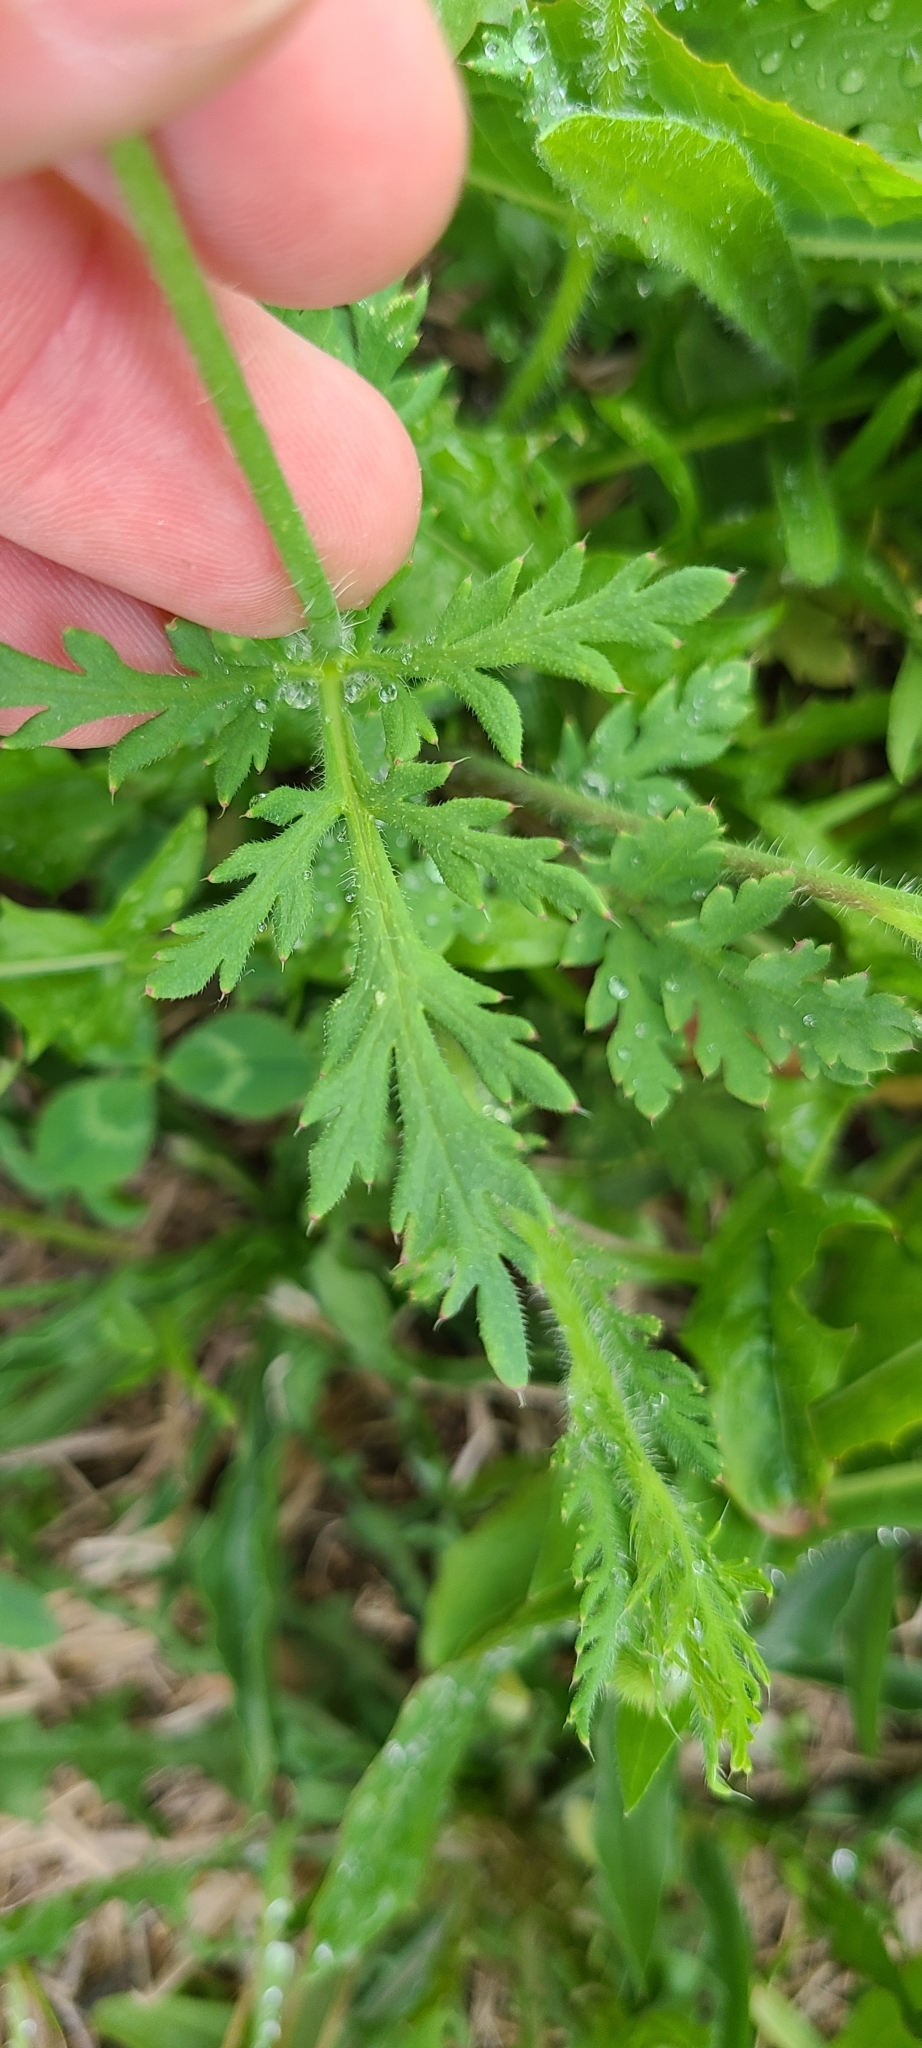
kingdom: Plantae
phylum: Tracheophyta
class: Magnoliopsida
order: Ranunculales
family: Papaveraceae
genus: Papaver
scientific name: Papaver dubium
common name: Long-headed poppy
